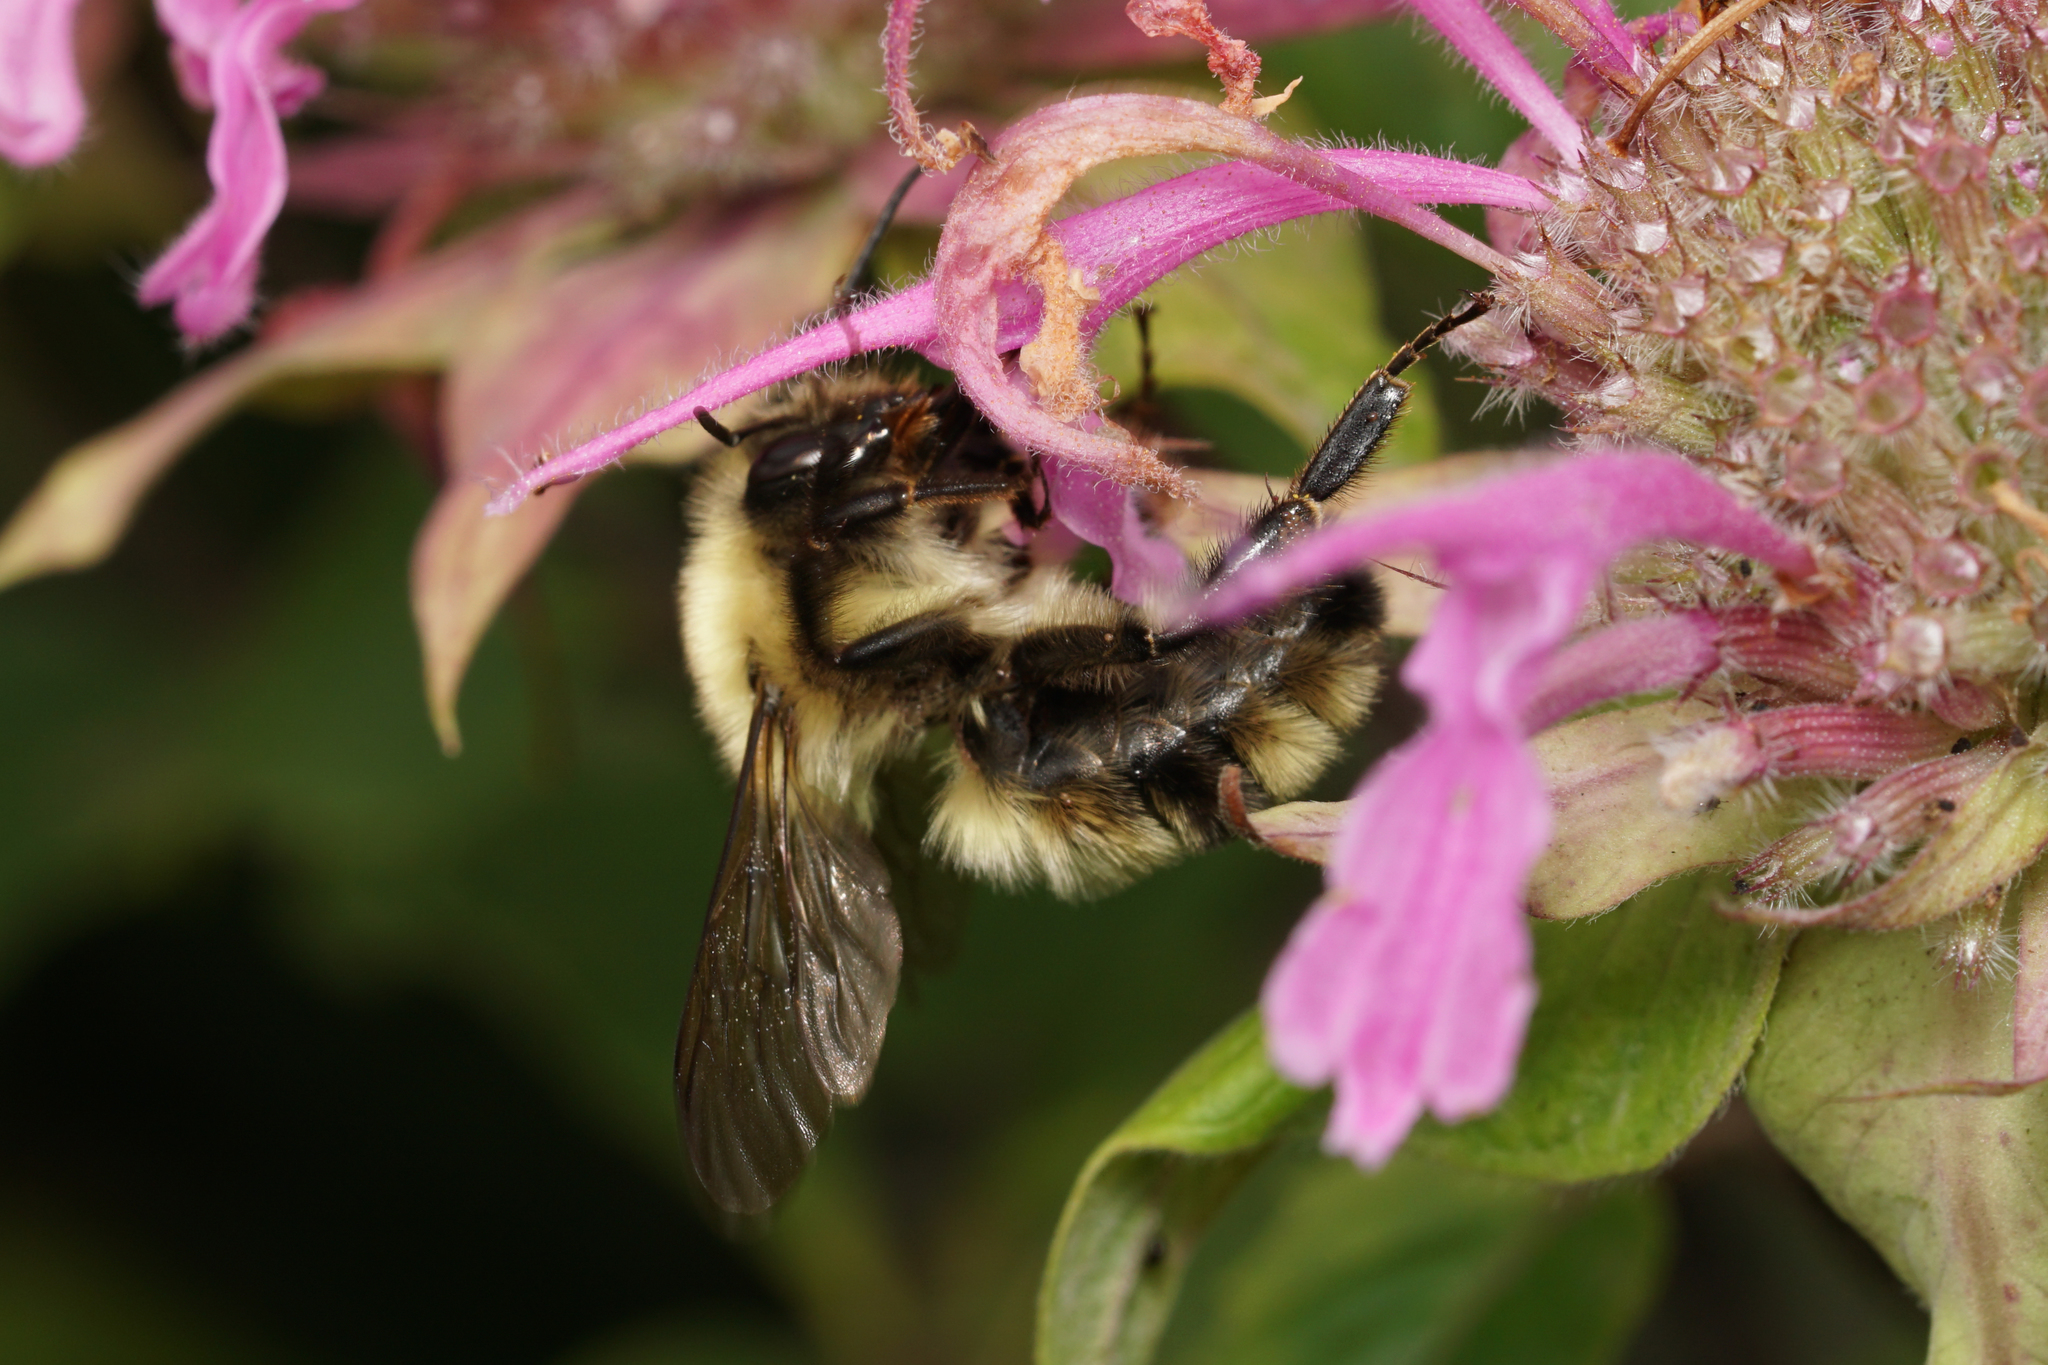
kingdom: Animalia
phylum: Arthropoda
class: Insecta
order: Hymenoptera
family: Apidae
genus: Bombus
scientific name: Bombus bimaculatus
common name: Two-spotted bumble bee
